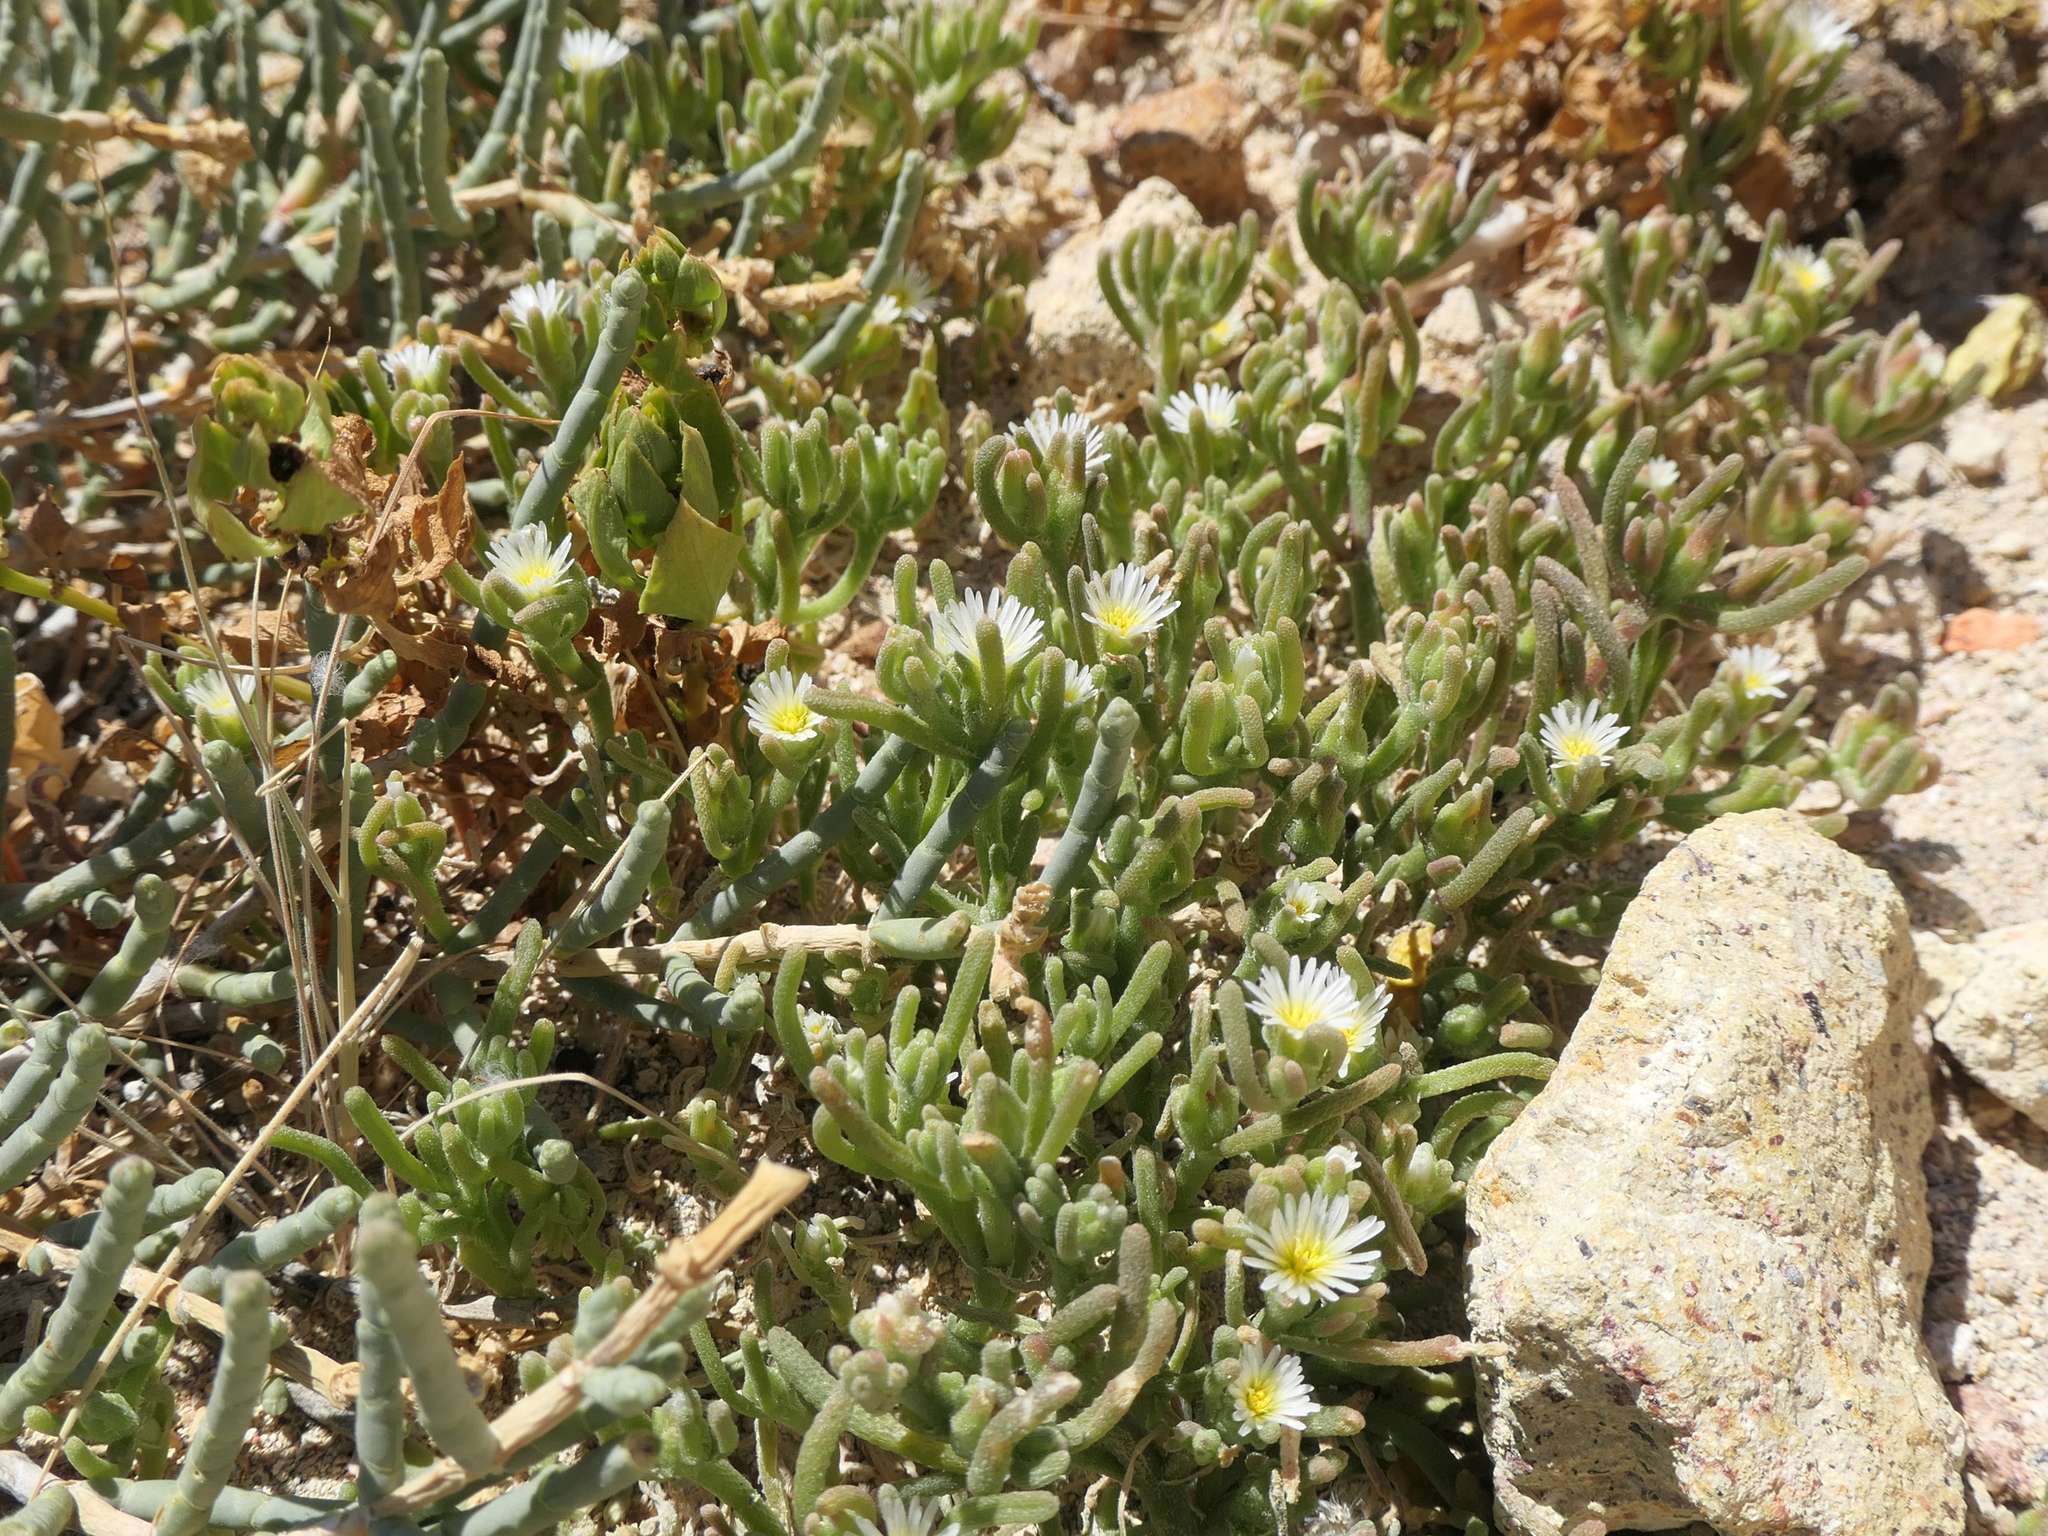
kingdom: Plantae
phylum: Tracheophyta
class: Magnoliopsida
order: Caryophyllales
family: Aizoaceae
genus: Mesembryanthemum
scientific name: Mesembryanthemum nodiflorum
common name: Slenderleaf iceplant
